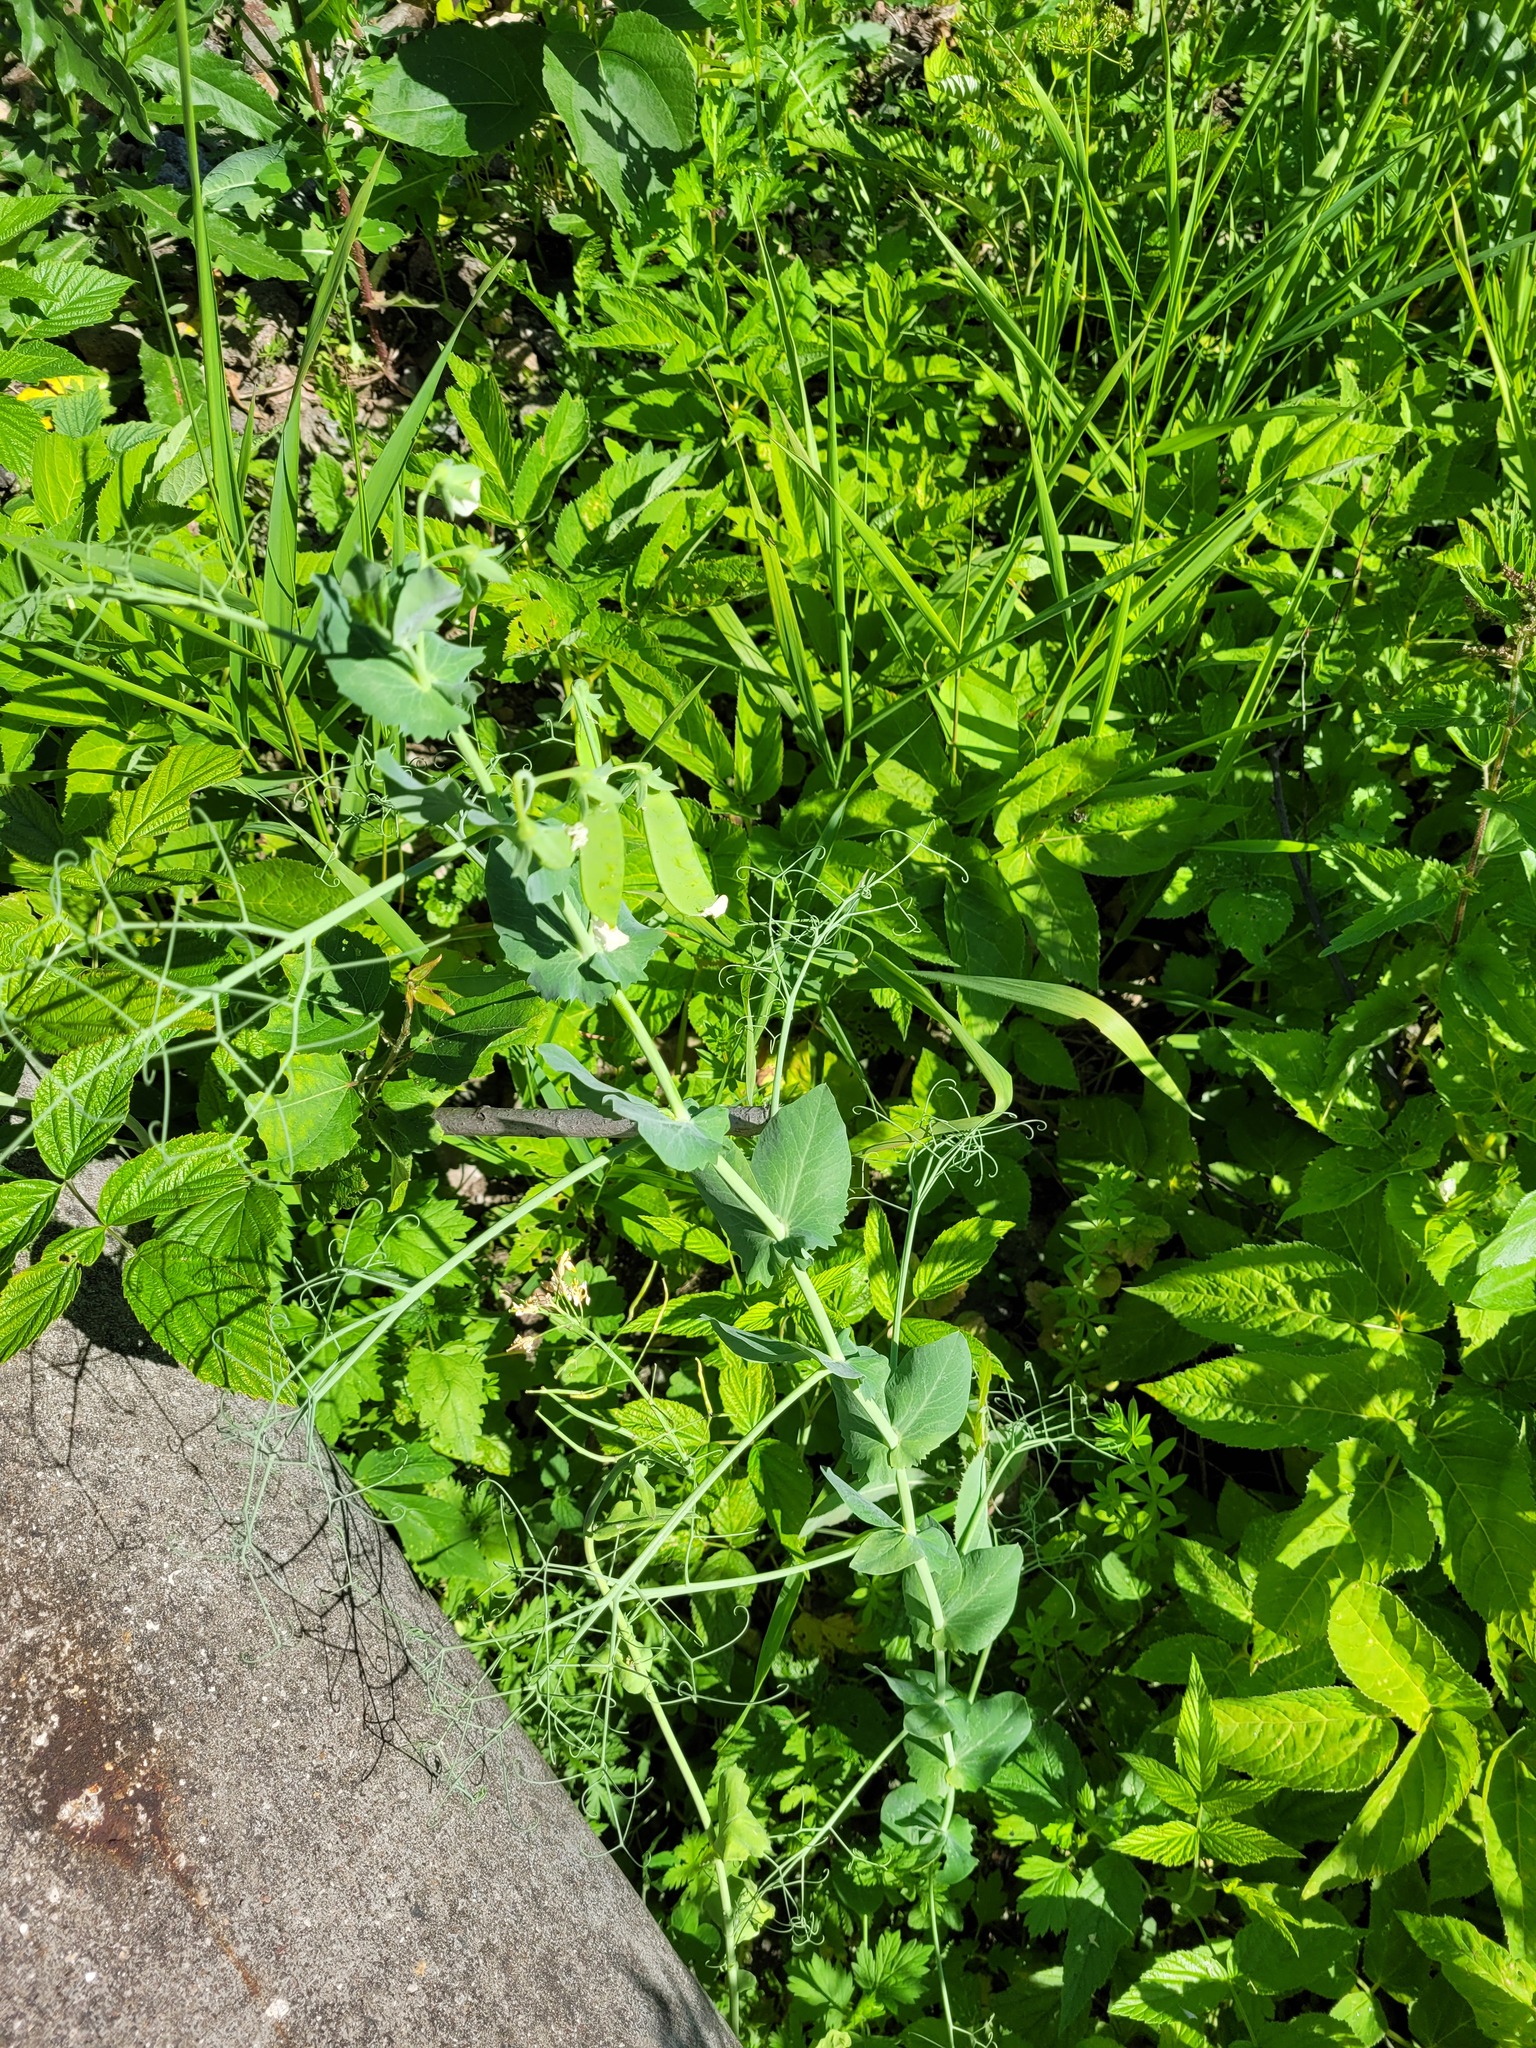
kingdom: Plantae
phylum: Tracheophyta
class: Magnoliopsida
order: Fabales
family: Fabaceae
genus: Lathyrus
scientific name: Lathyrus oleraceus
